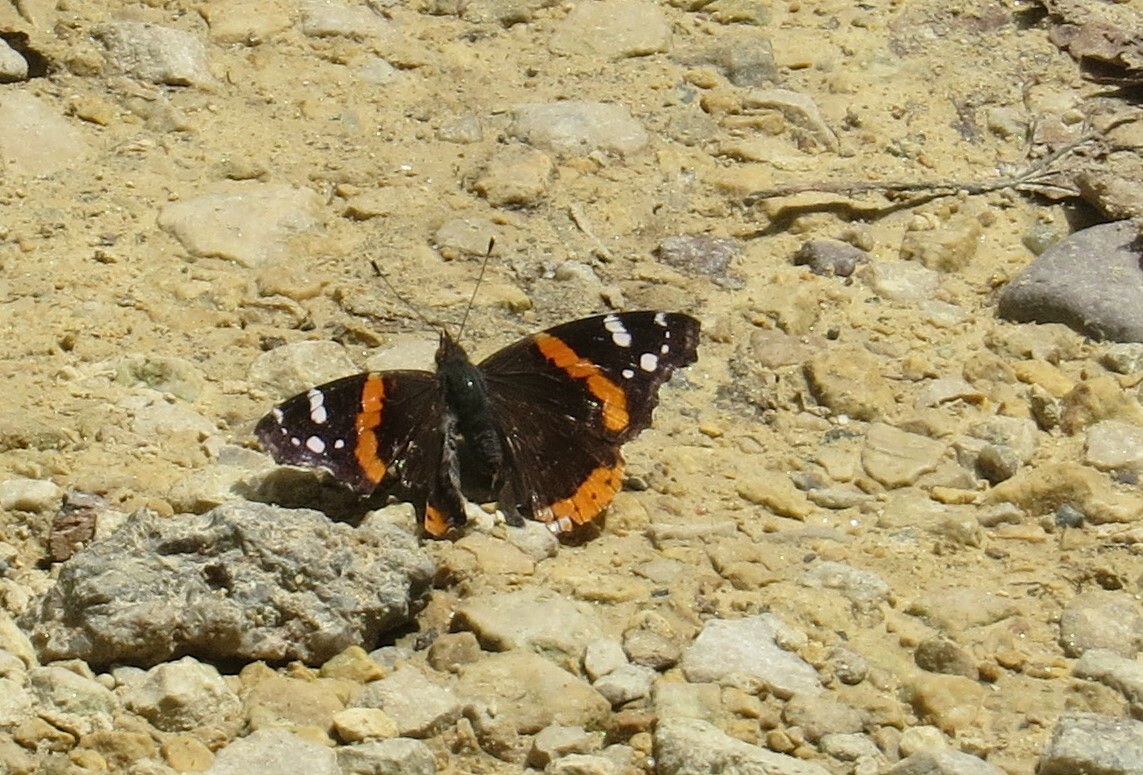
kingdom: Animalia
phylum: Arthropoda
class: Insecta
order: Lepidoptera
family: Nymphalidae
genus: Vanessa
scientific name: Vanessa atalanta
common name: Red admiral
